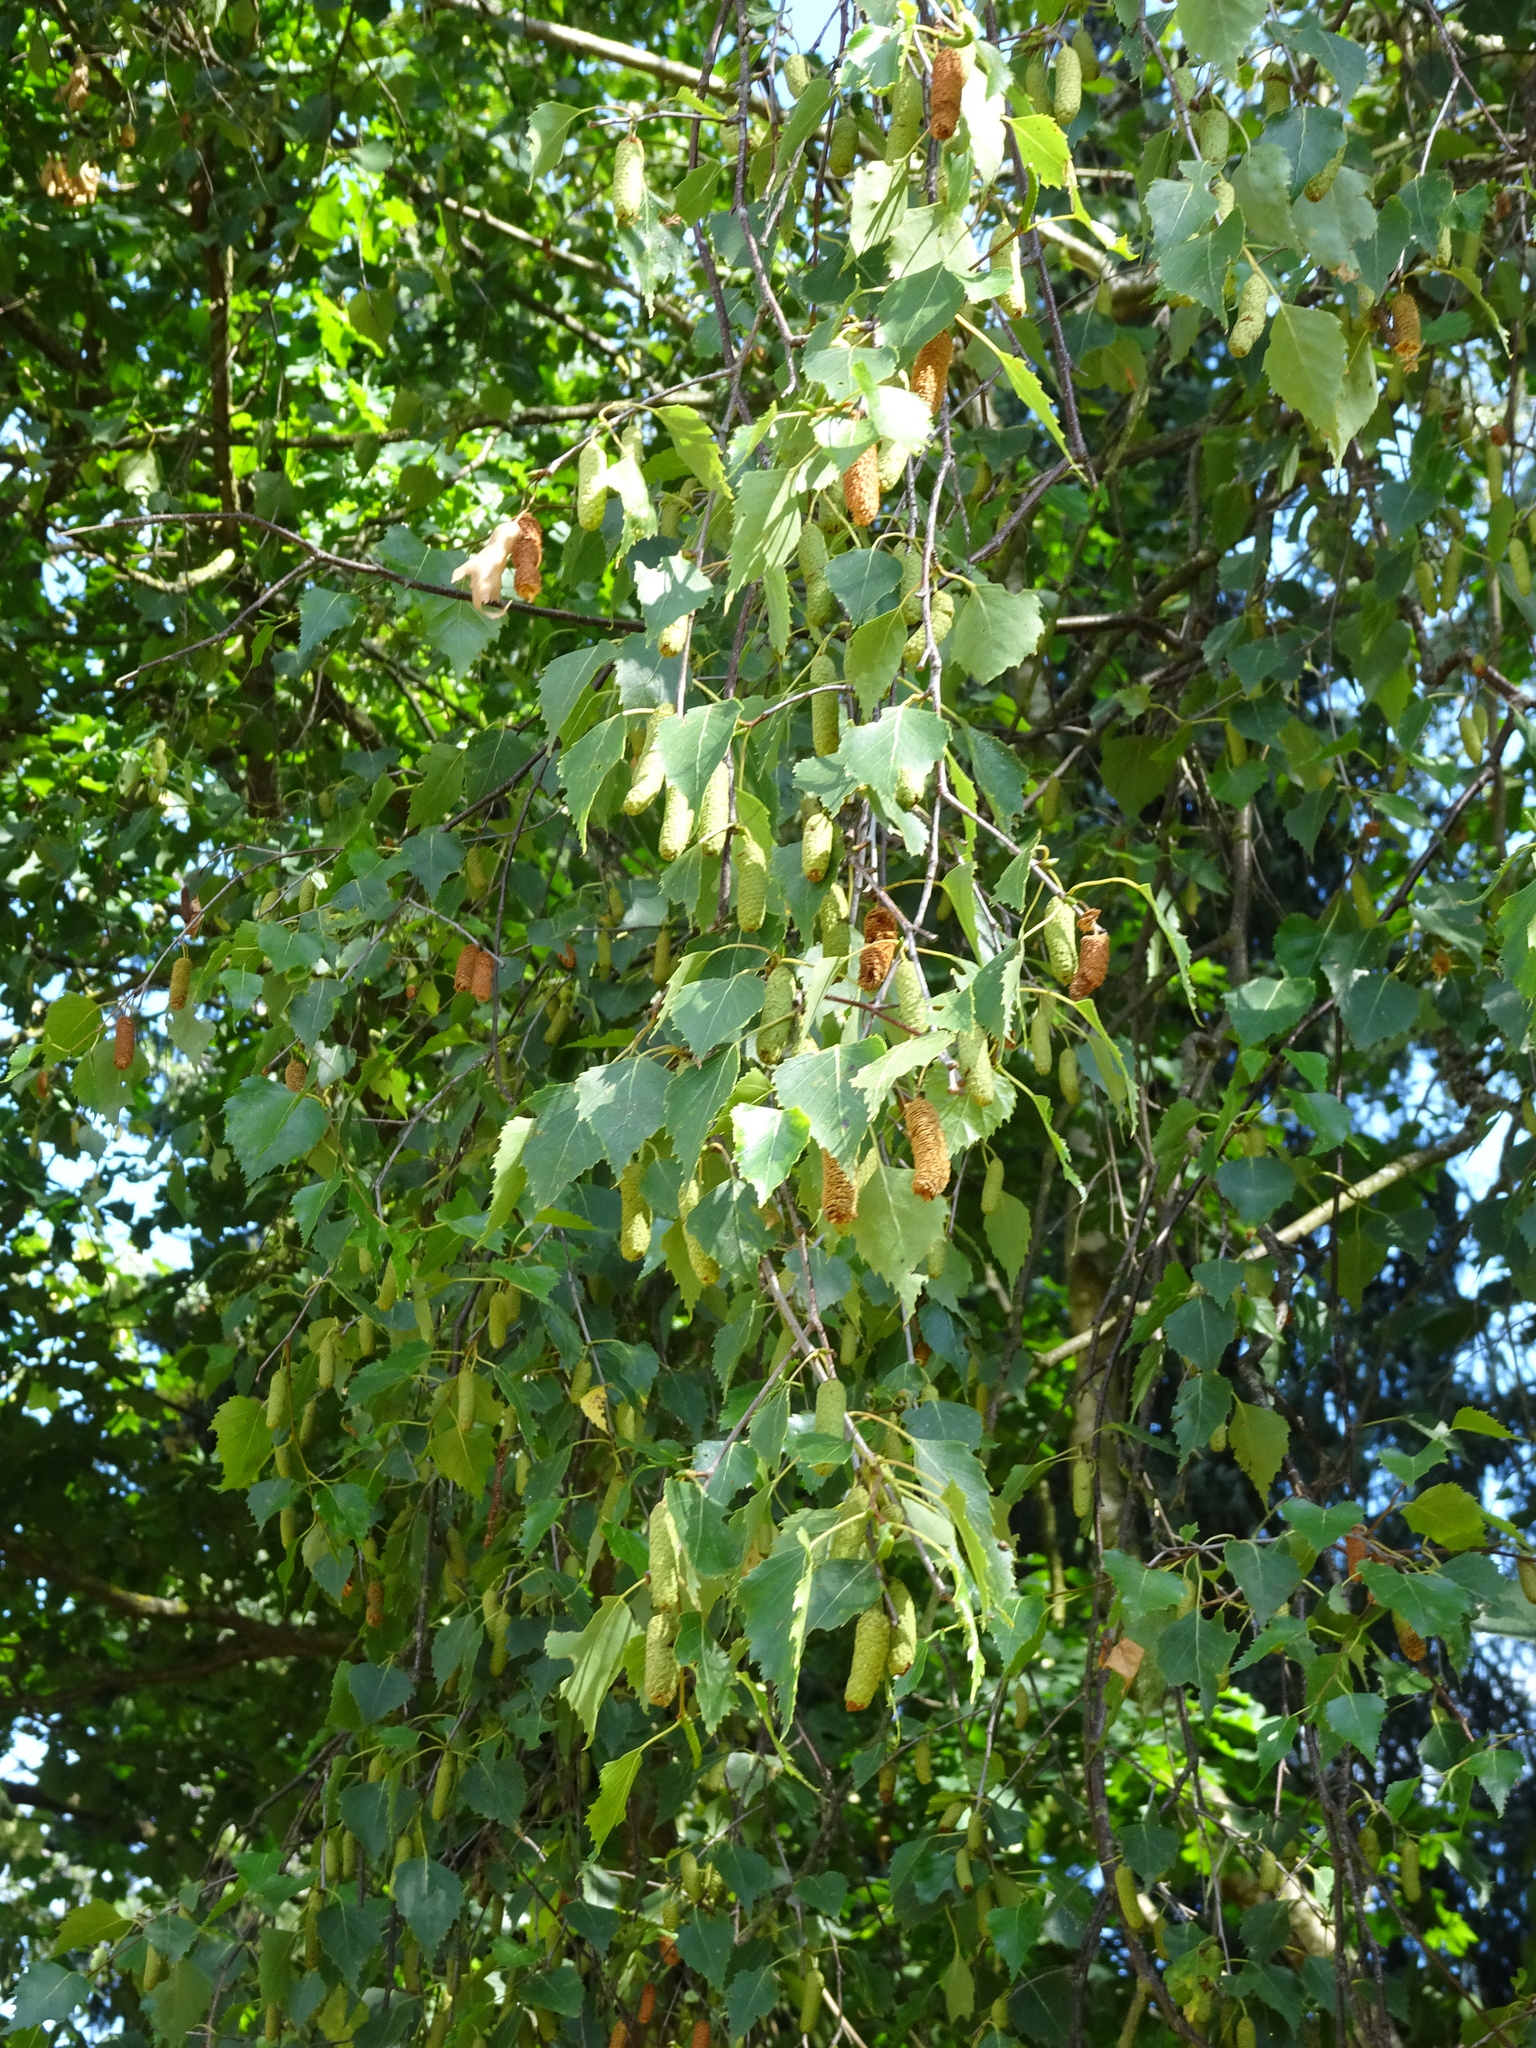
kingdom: Plantae
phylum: Tracheophyta
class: Magnoliopsida
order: Fagales
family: Betulaceae
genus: Betula
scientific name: Betula pendula
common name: Silver birch
